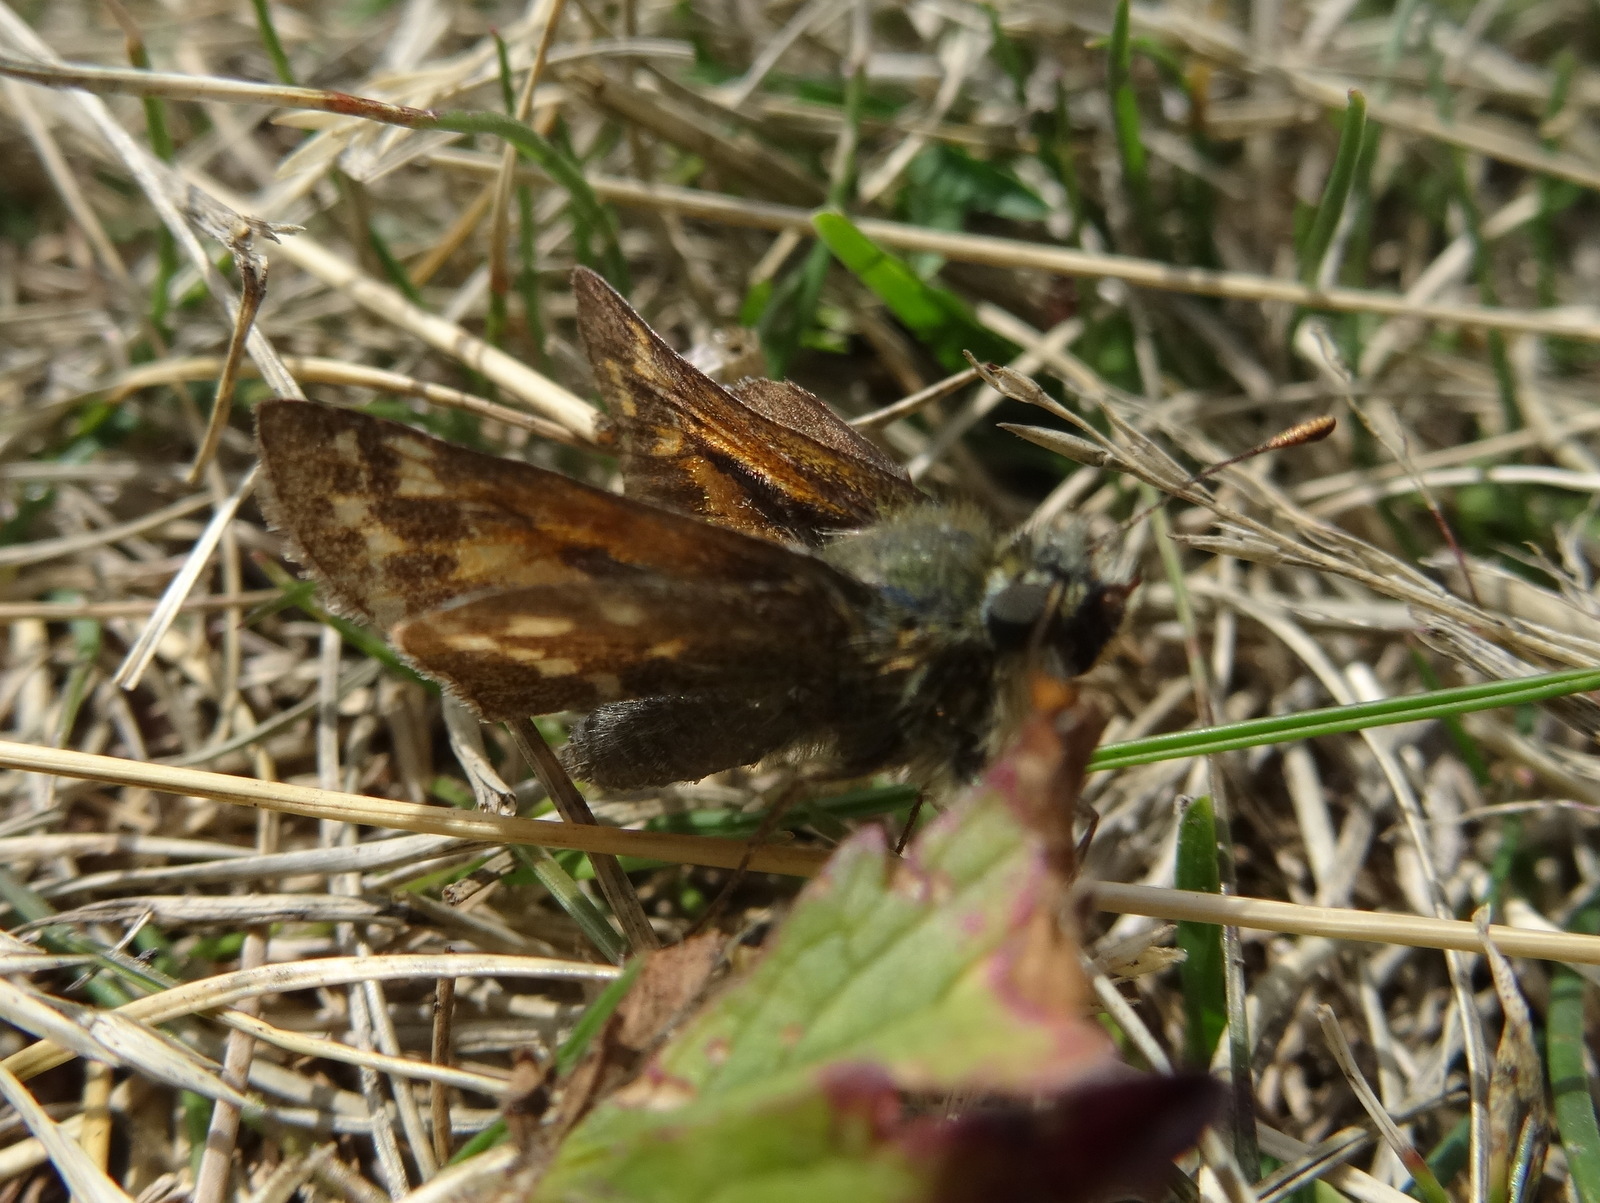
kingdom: Animalia
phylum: Arthropoda
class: Insecta
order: Lepidoptera
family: Hesperiidae
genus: Hesperia
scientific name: Hesperia comma
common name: Common branded skipper
